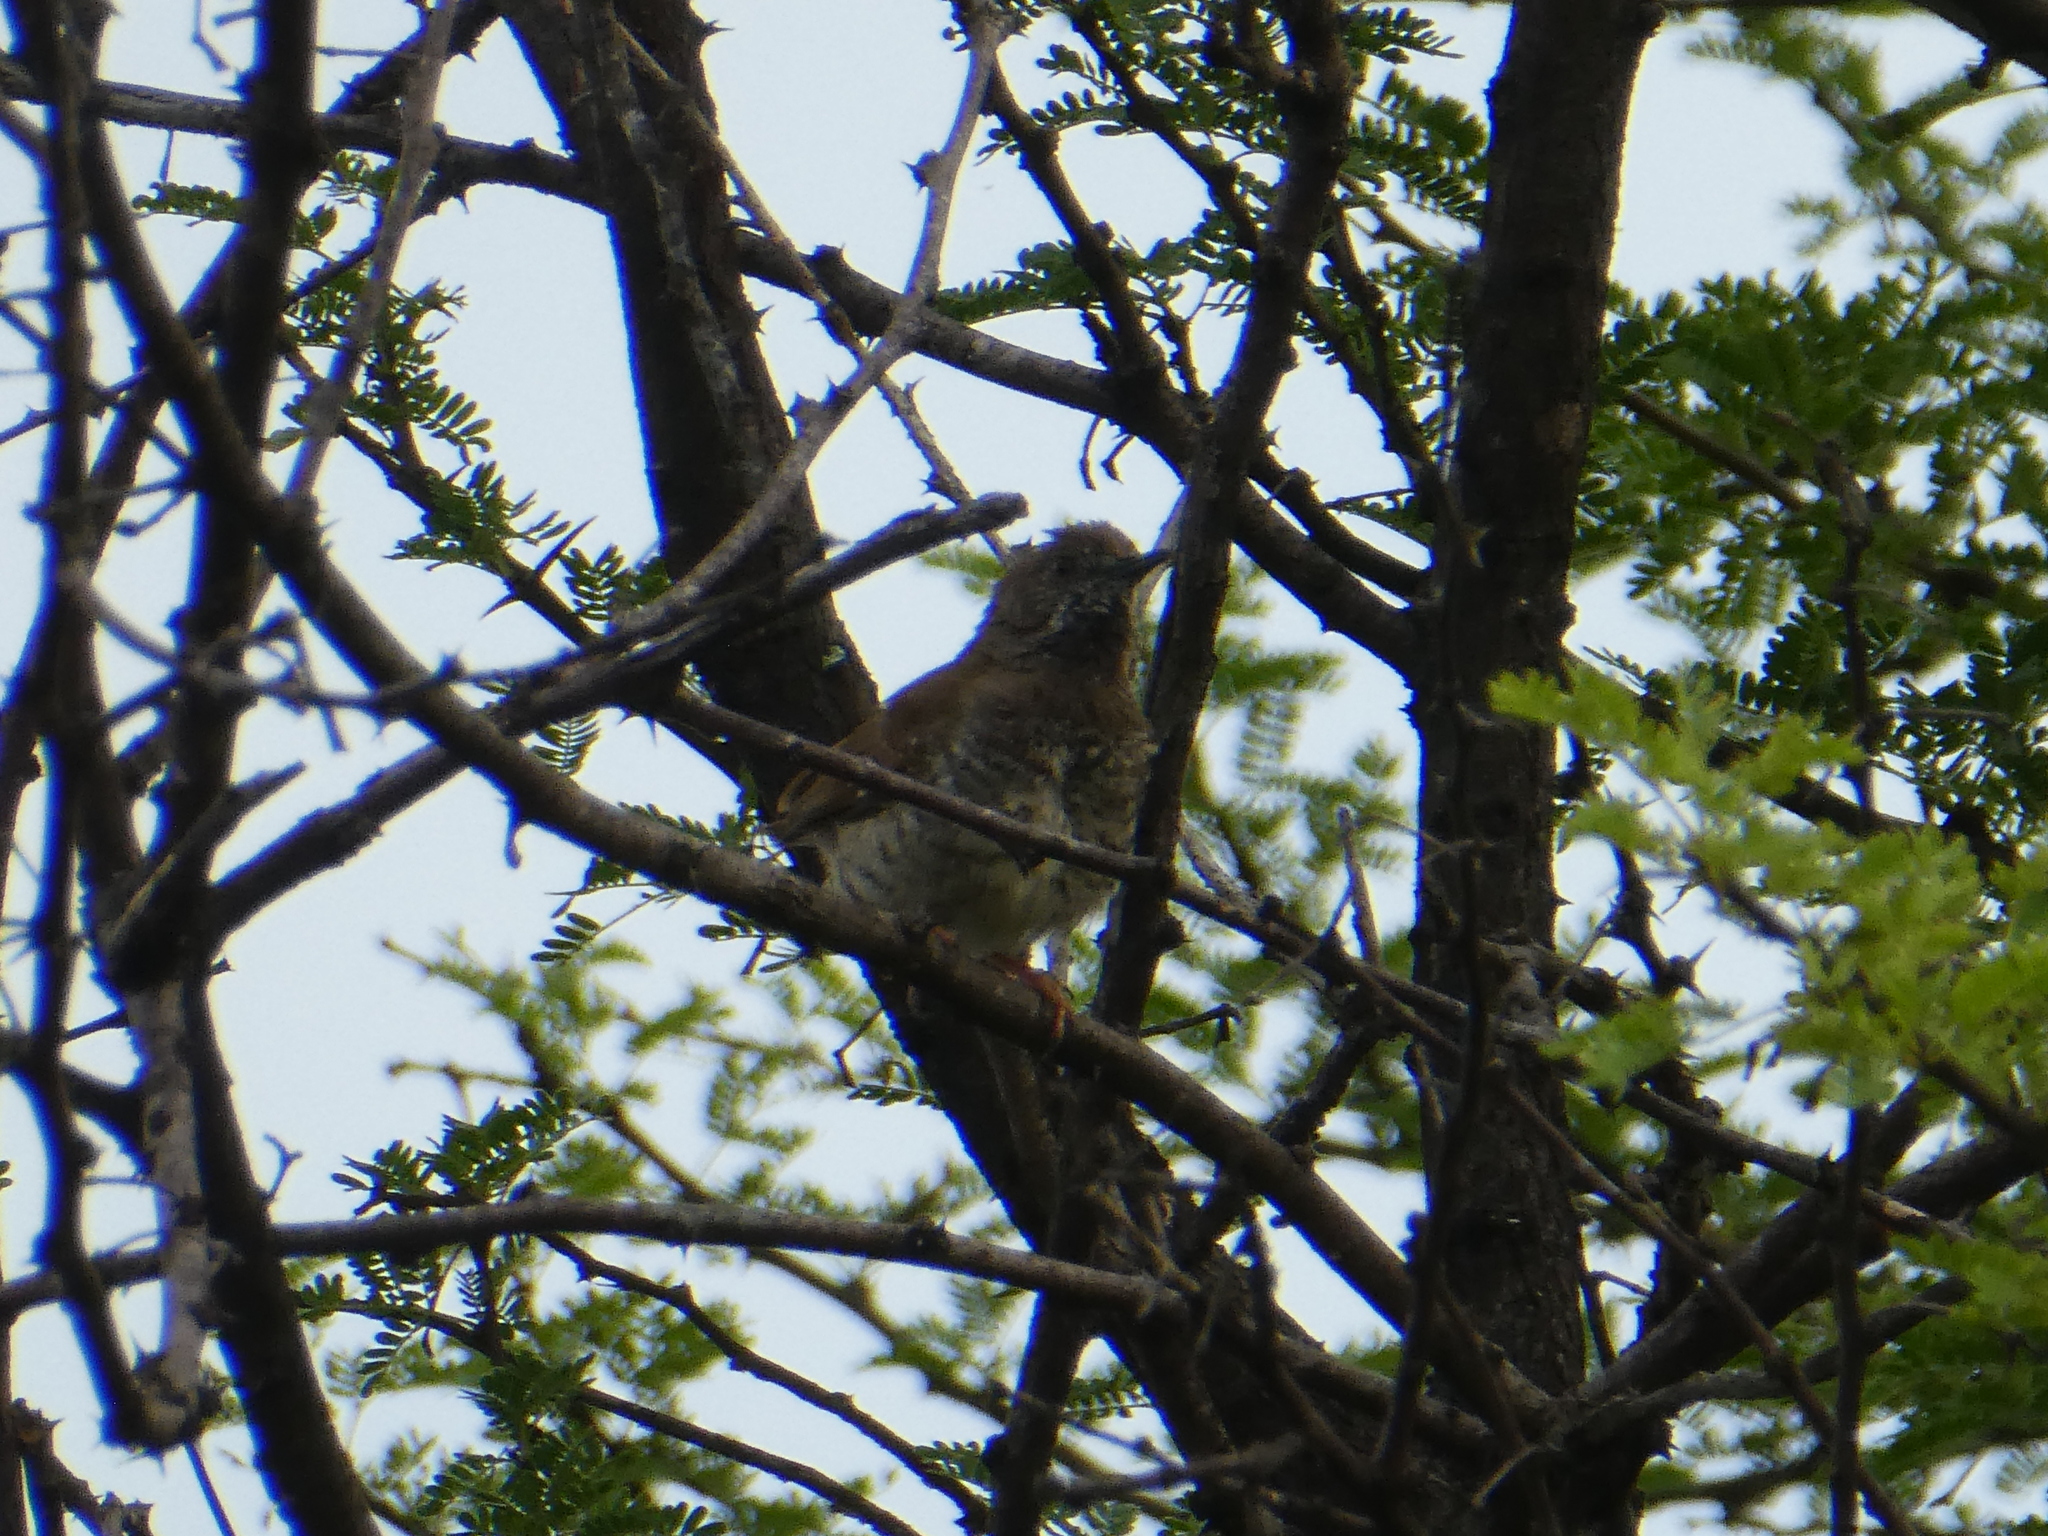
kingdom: Animalia
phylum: Chordata
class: Aves
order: Passeriformes
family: Cisticolidae
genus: Calamonastes
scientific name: Calamonastes fasciolatus
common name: Barred wren-warbler
